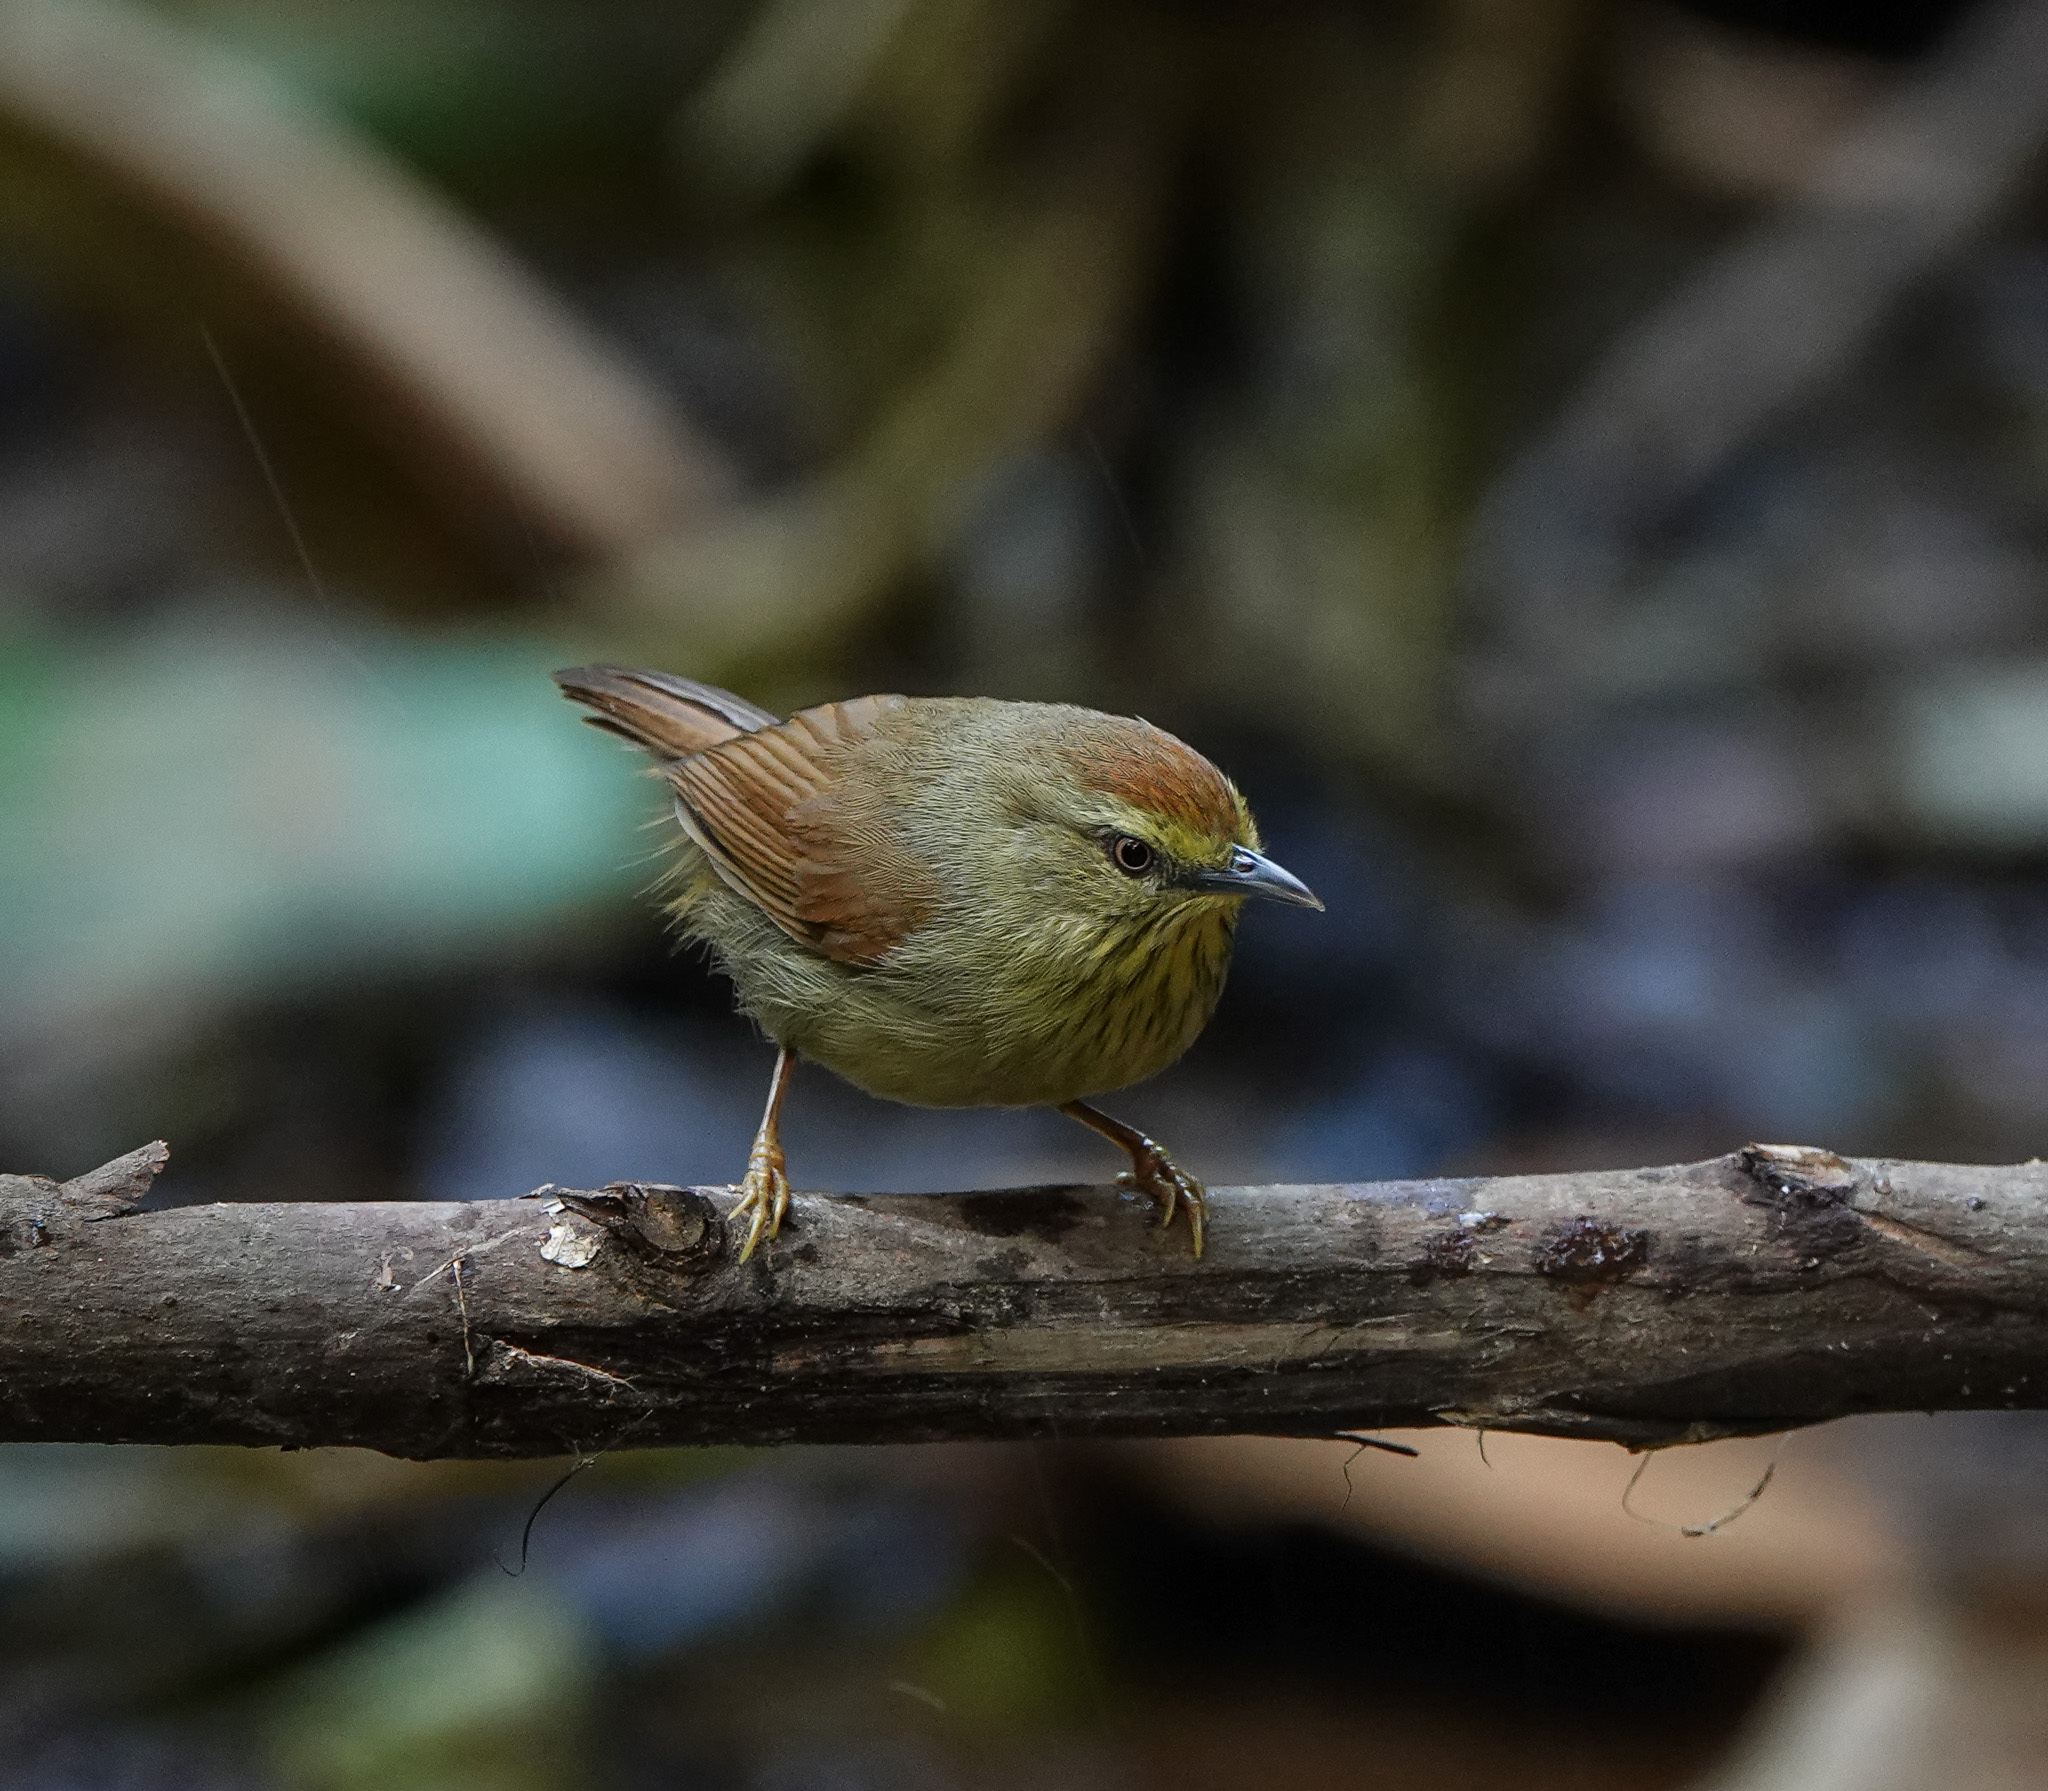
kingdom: Animalia
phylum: Chordata
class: Aves
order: Passeriformes
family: Timaliidae
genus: Macronus
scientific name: Macronus gularis
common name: Striped tit-babbler
